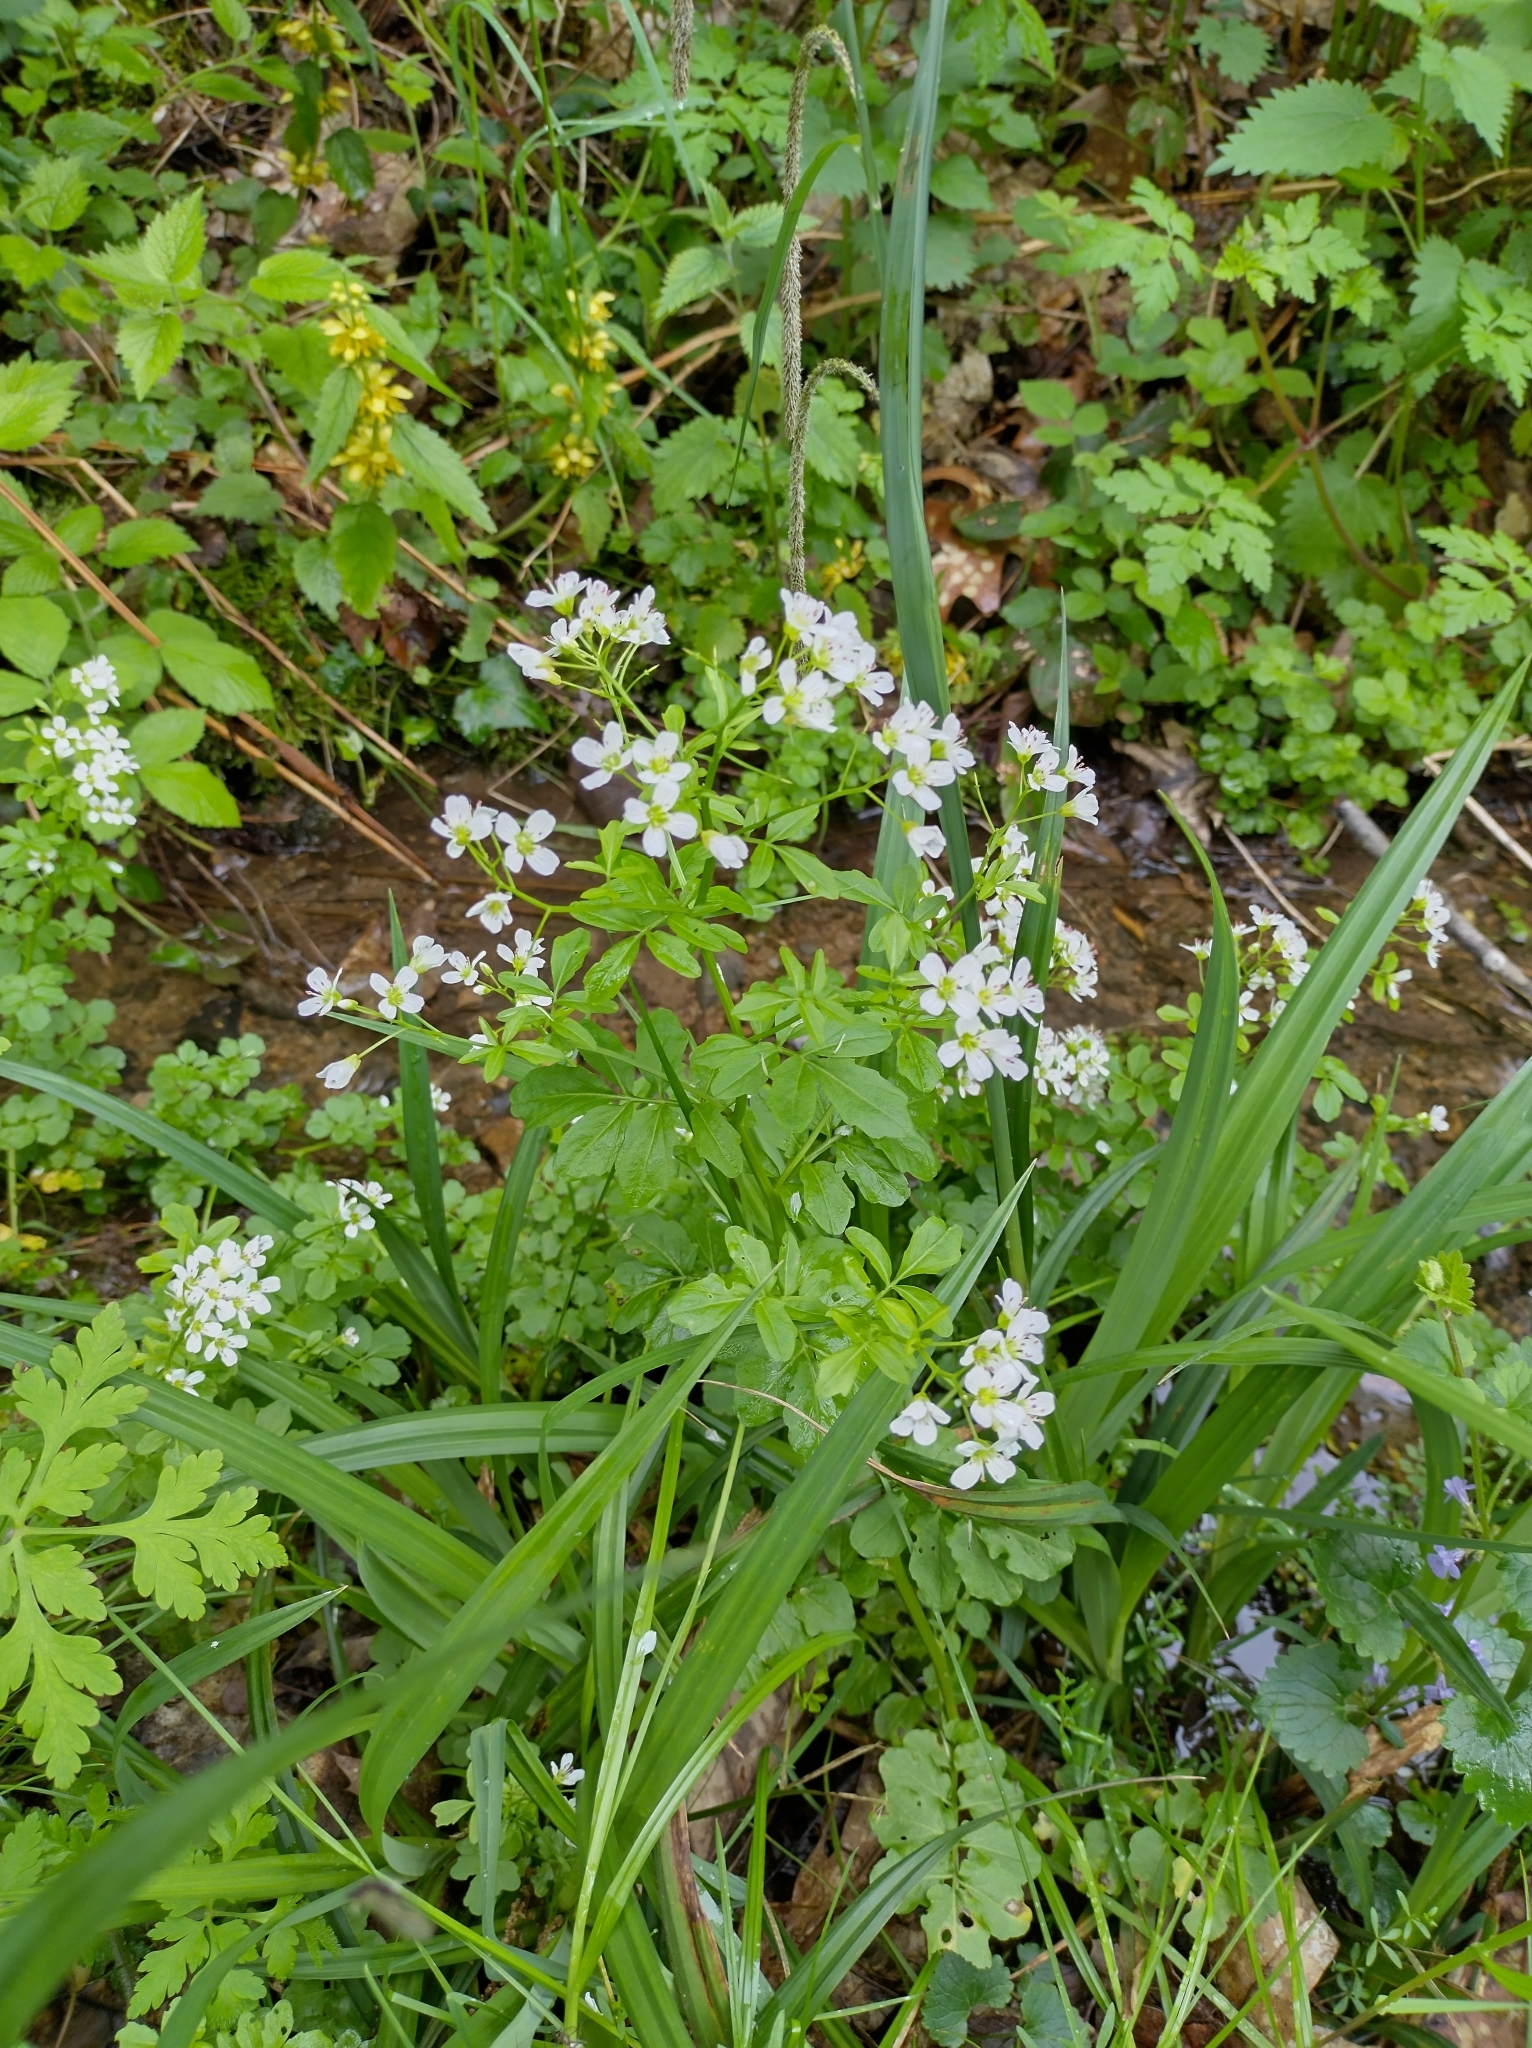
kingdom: Plantae
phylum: Tracheophyta
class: Magnoliopsida
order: Brassicales
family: Brassicaceae
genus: Cardamine
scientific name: Cardamine amara
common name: Large bitter-cress
